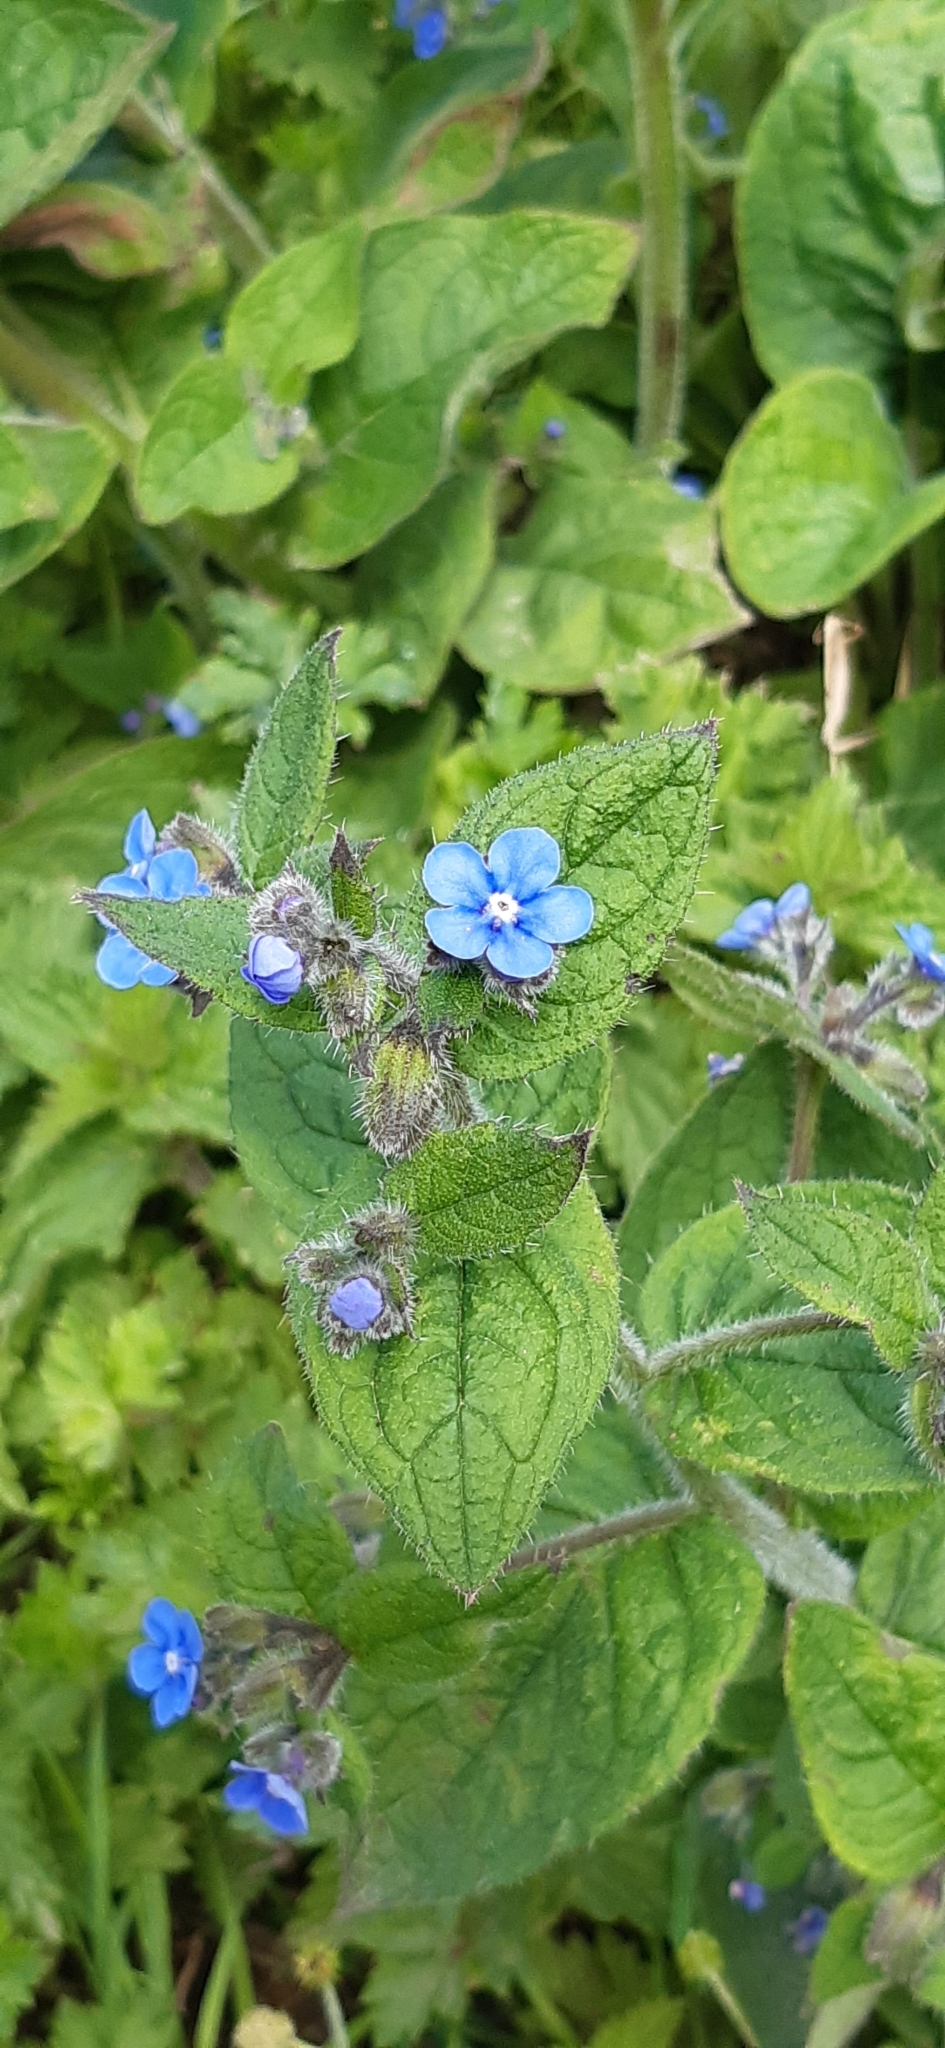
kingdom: Plantae
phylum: Tracheophyta
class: Magnoliopsida
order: Boraginales
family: Boraginaceae
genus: Pentaglottis
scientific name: Pentaglottis sempervirens
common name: Green alkanet
